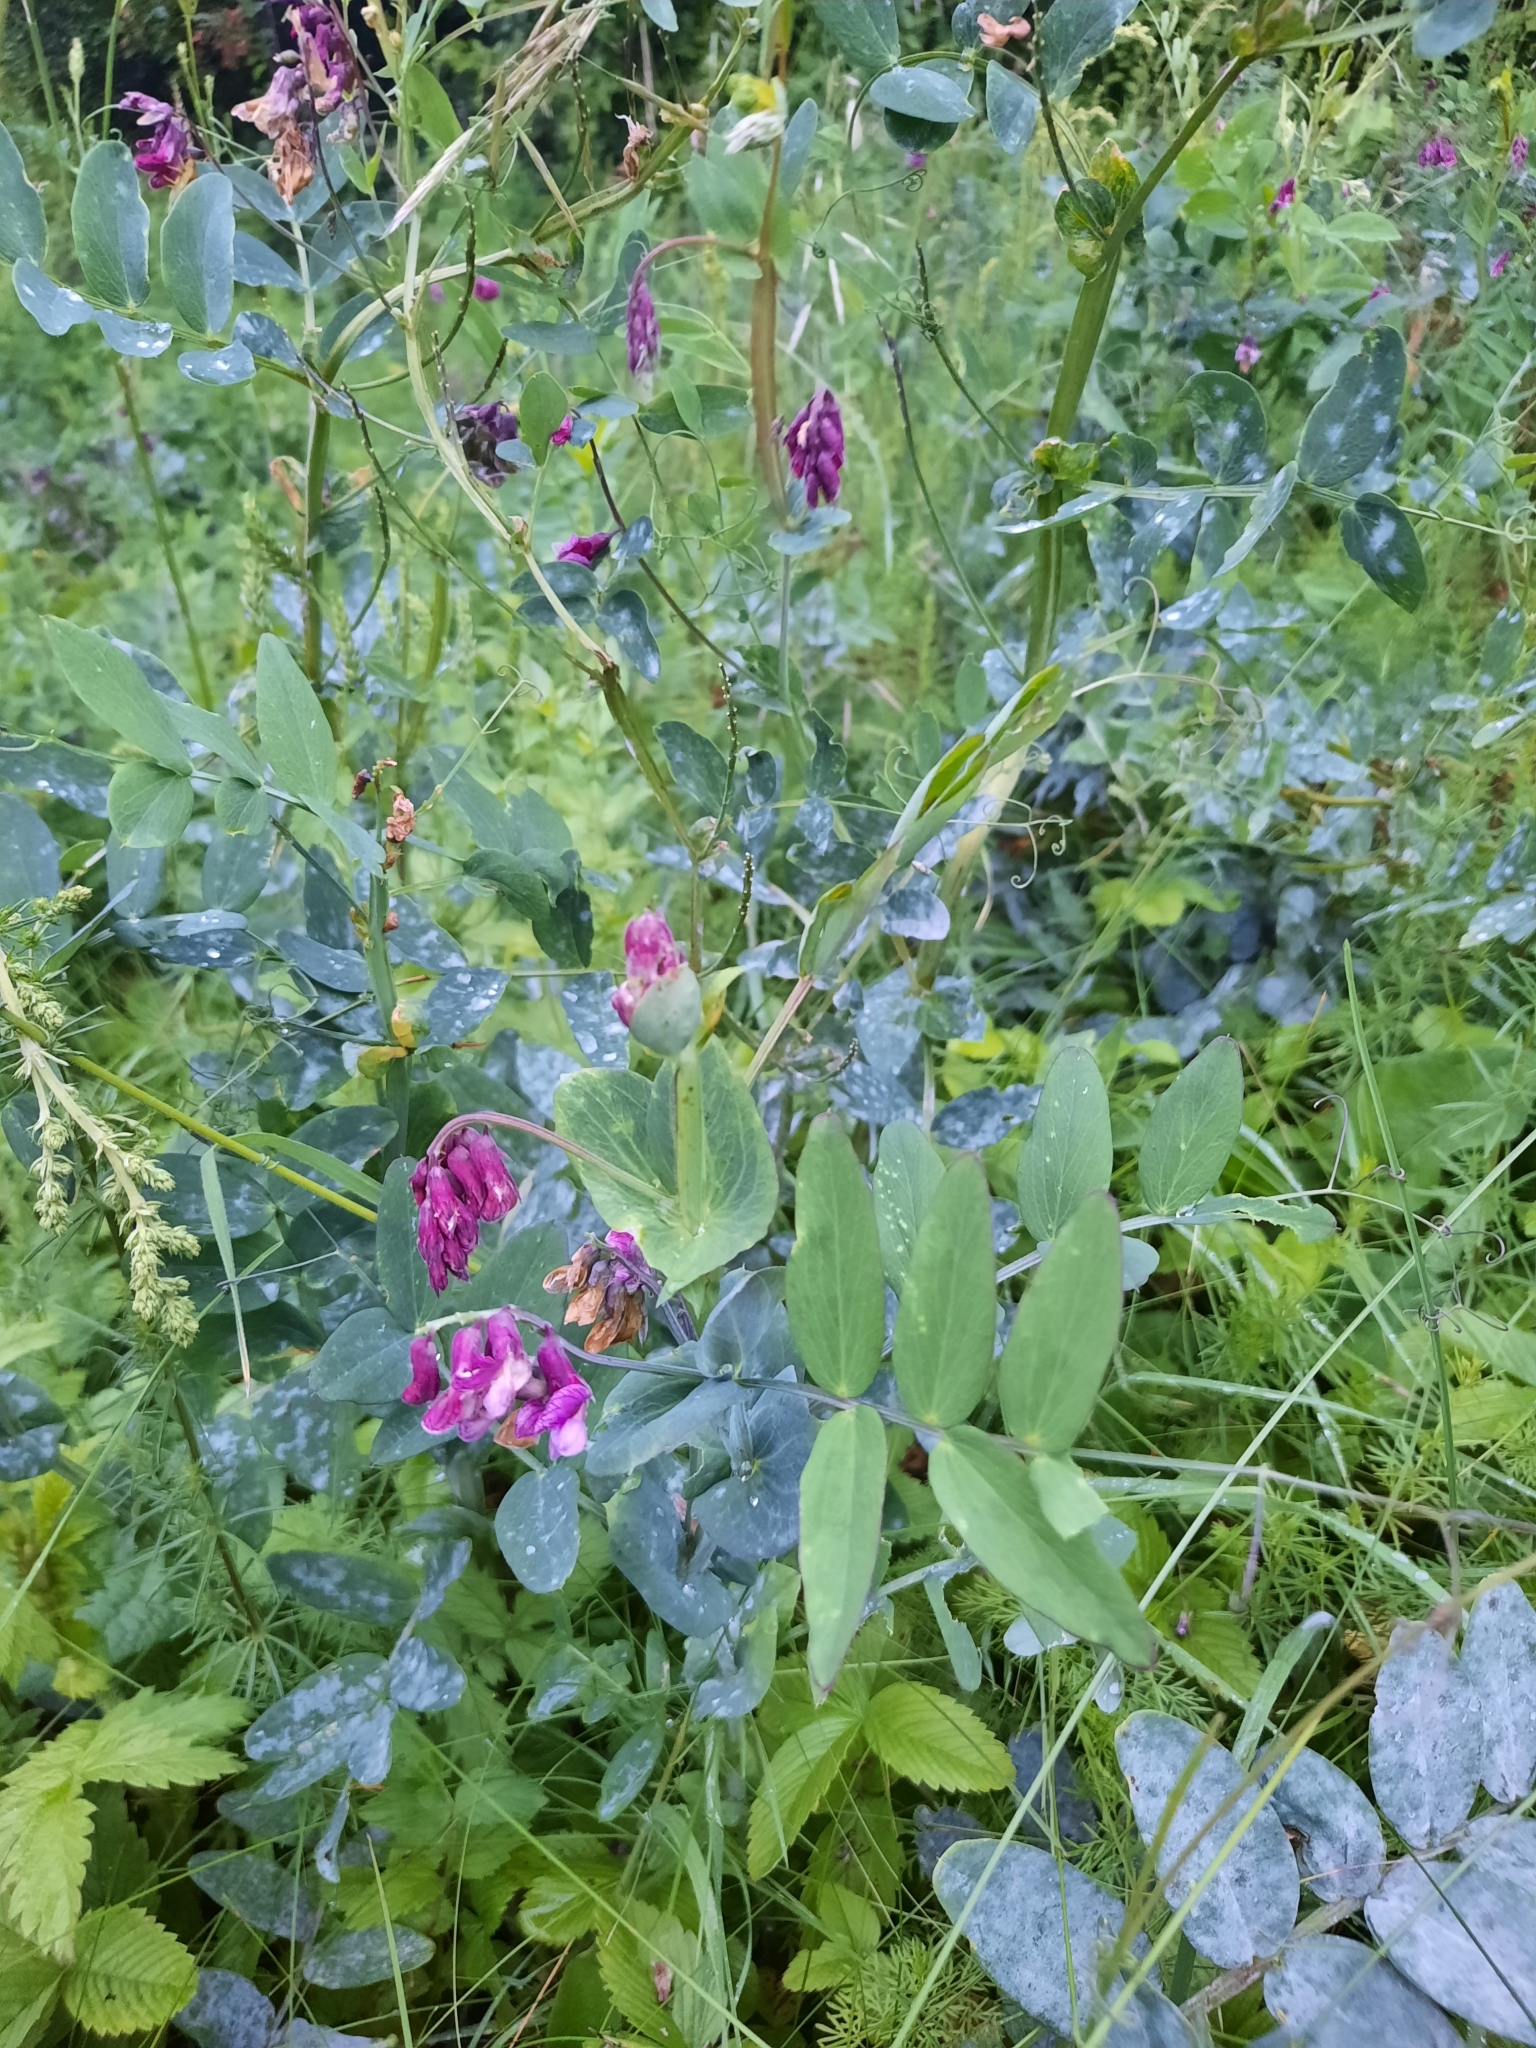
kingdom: Plantae
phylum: Tracheophyta
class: Magnoliopsida
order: Fabales
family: Fabaceae
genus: Lathyrus
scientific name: Lathyrus pisiformis
